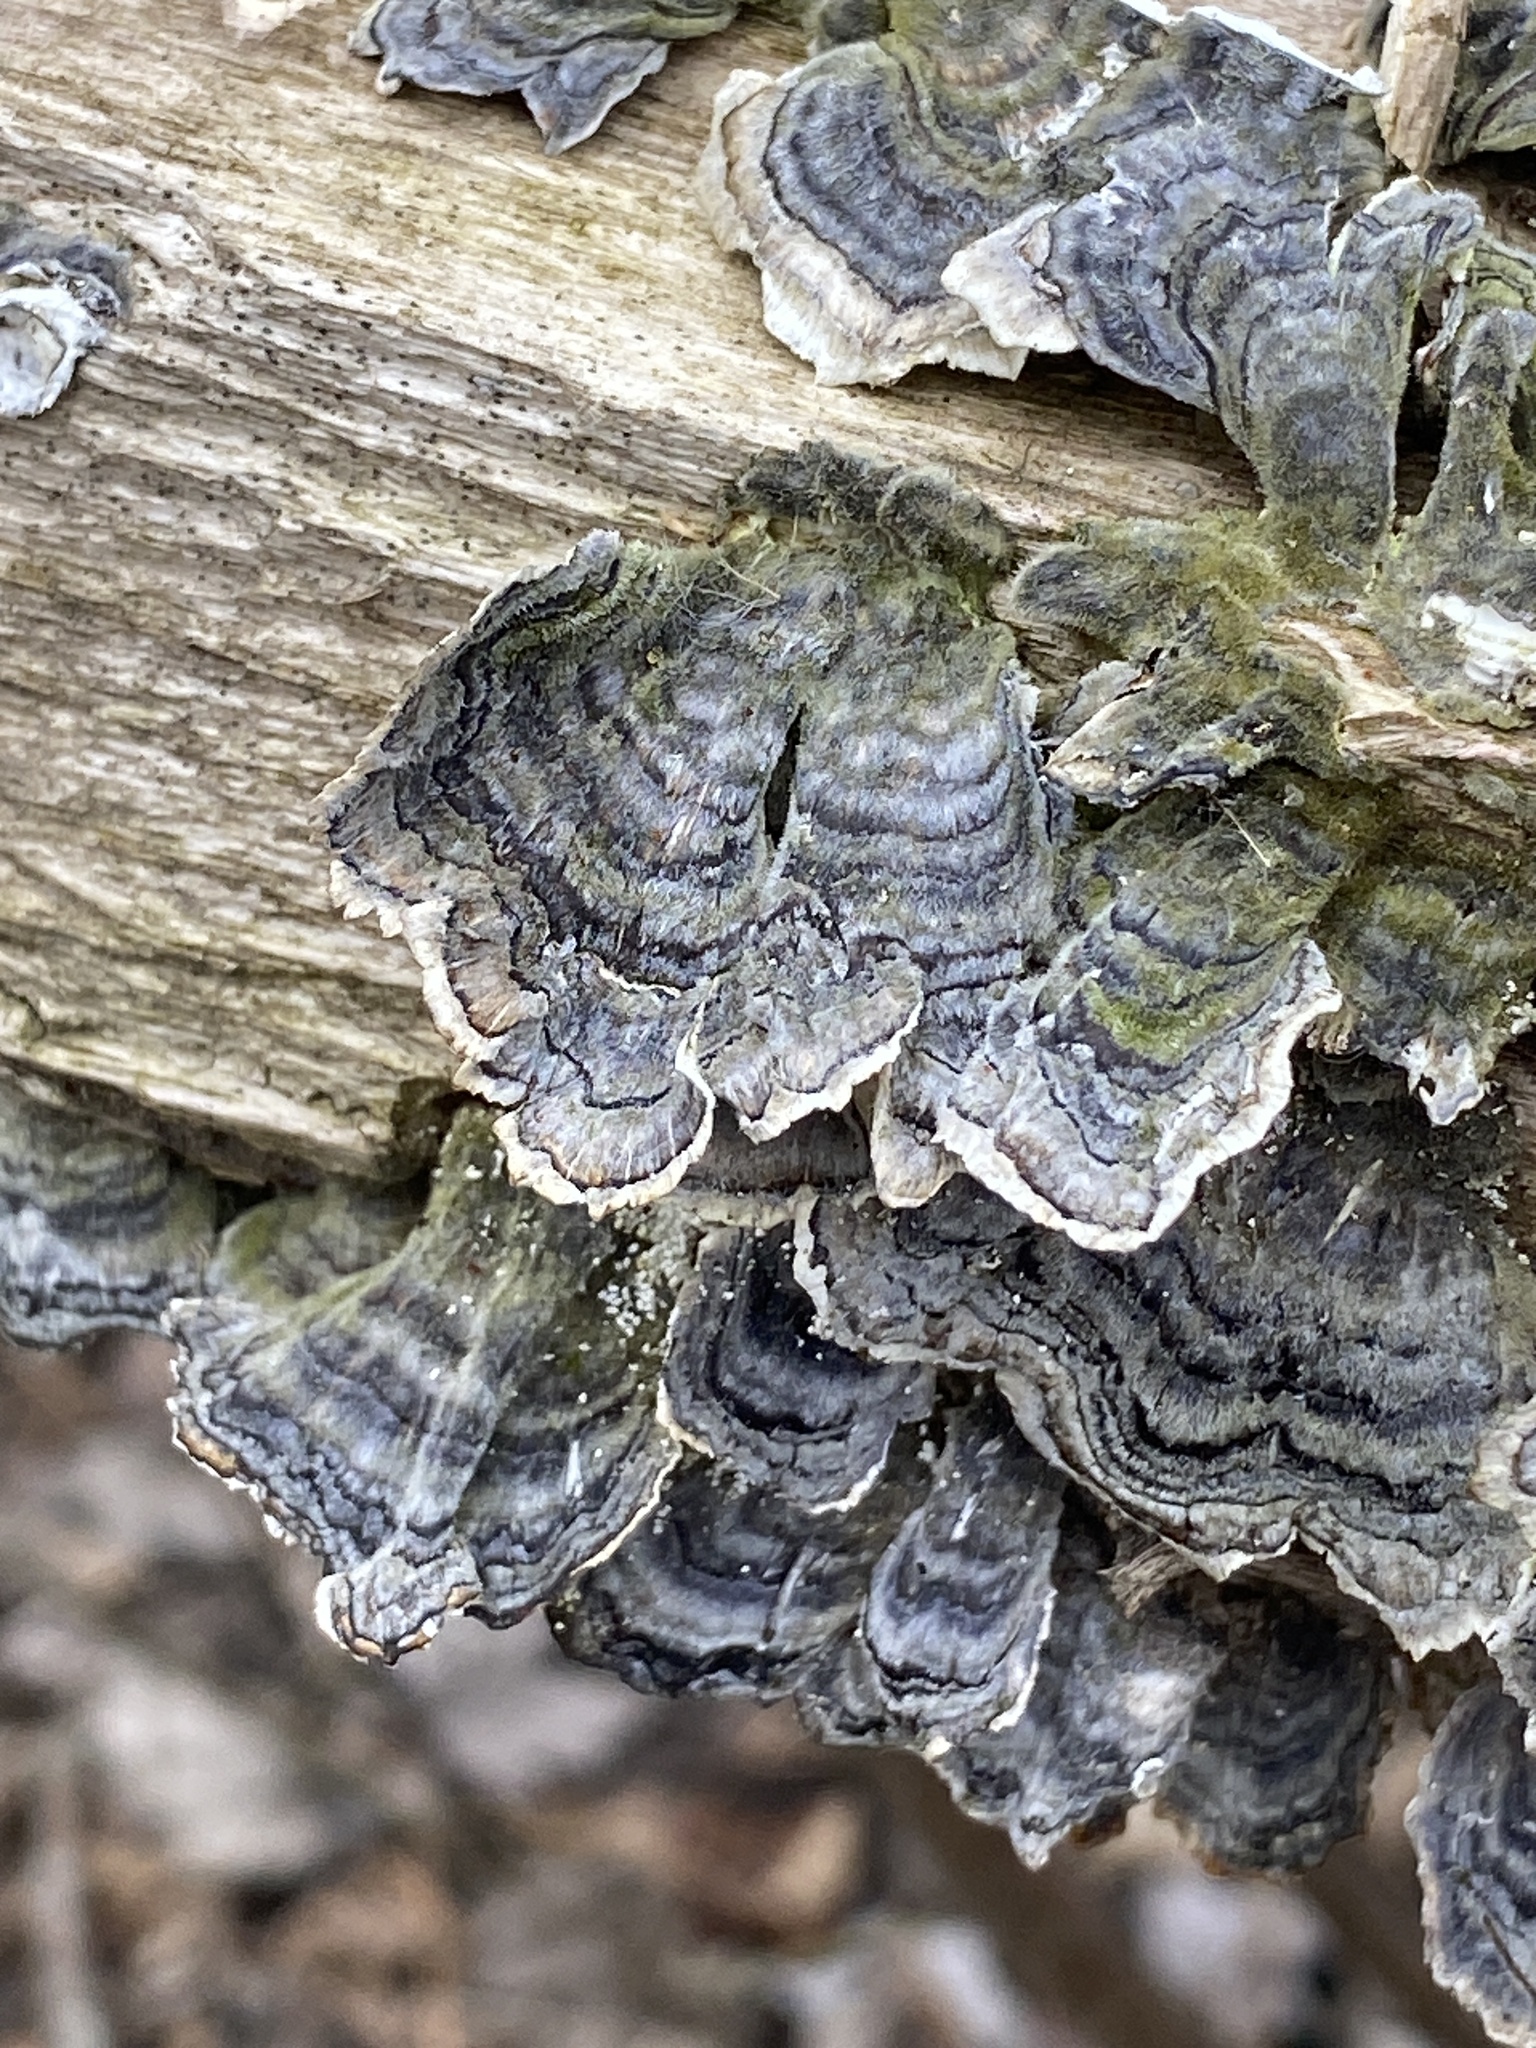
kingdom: Fungi
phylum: Basidiomycota
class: Agaricomycetes
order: Polyporales
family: Polyporaceae
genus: Trametes
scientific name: Trametes versicolor
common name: Turkeytail
